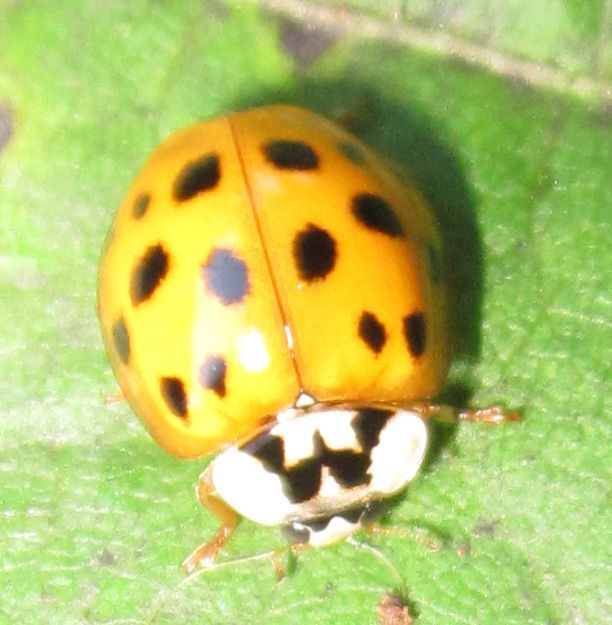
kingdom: Animalia
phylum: Arthropoda
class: Insecta
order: Coleoptera
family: Coccinellidae
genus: Harmonia
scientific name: Harmonia axyridis
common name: Harlequin ladybird
